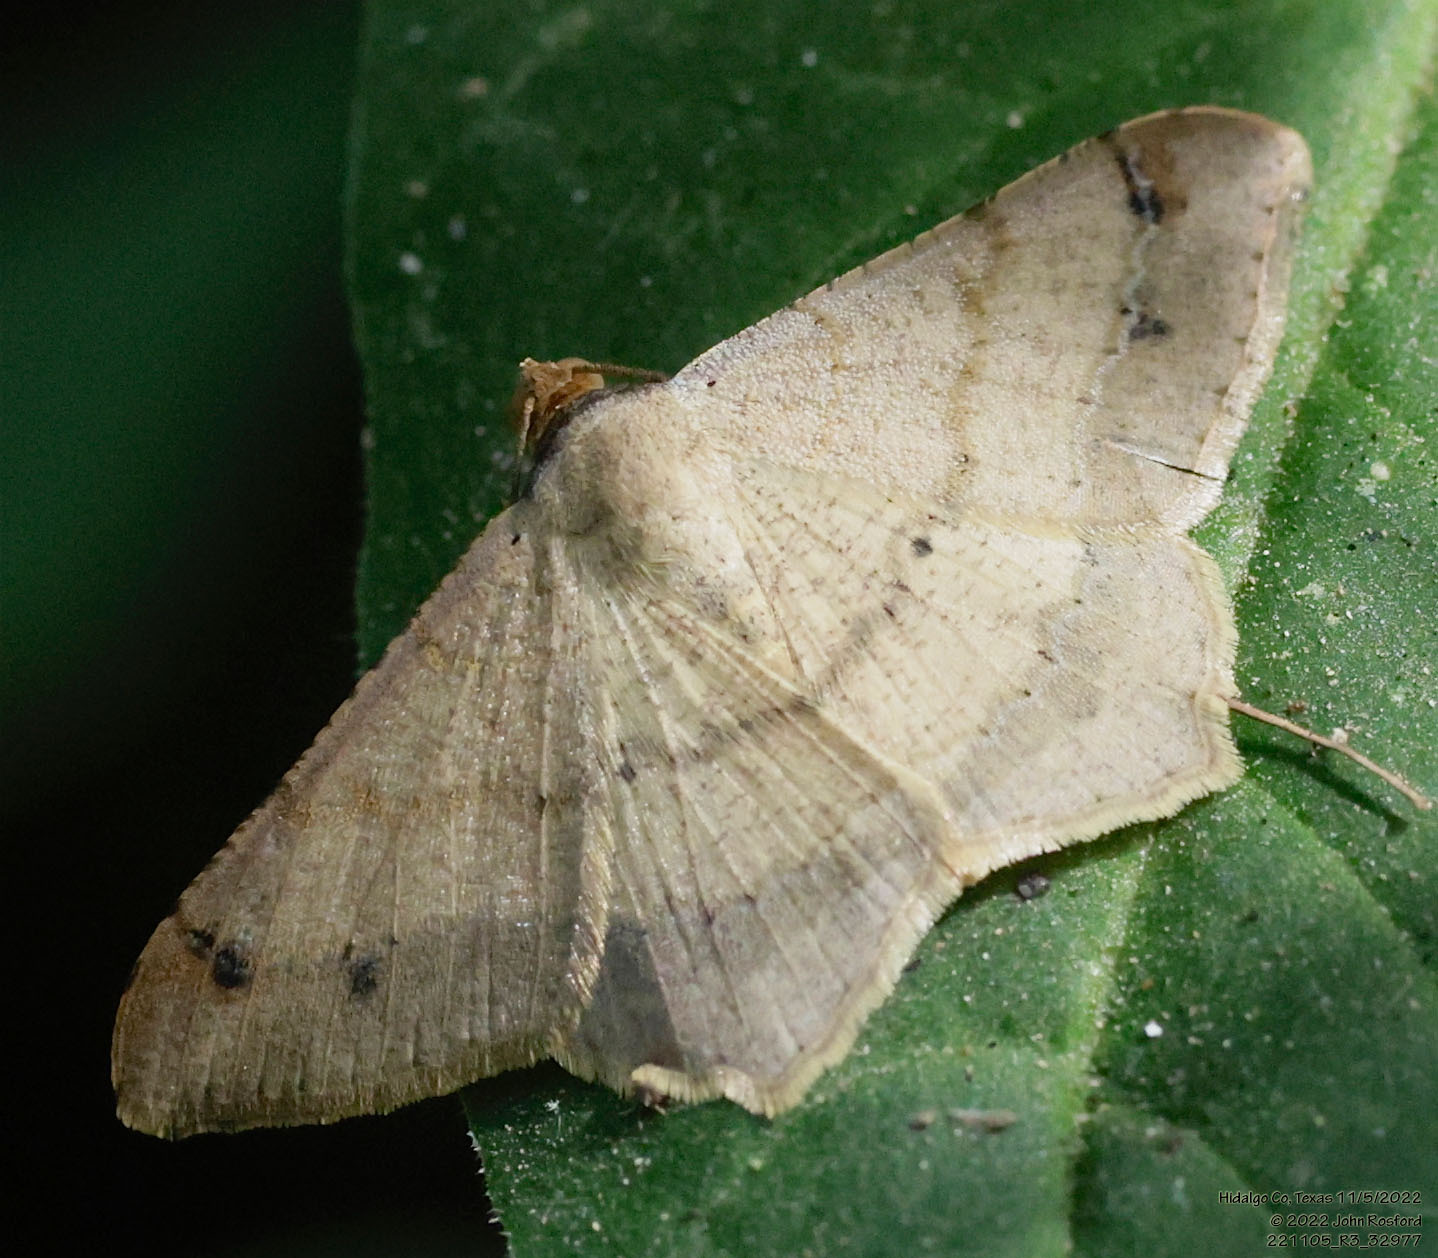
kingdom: Animalia
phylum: Arthropoda
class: Insecta
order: Lepidoptera
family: Geometridae
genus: Macaria
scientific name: Macaria abydata
